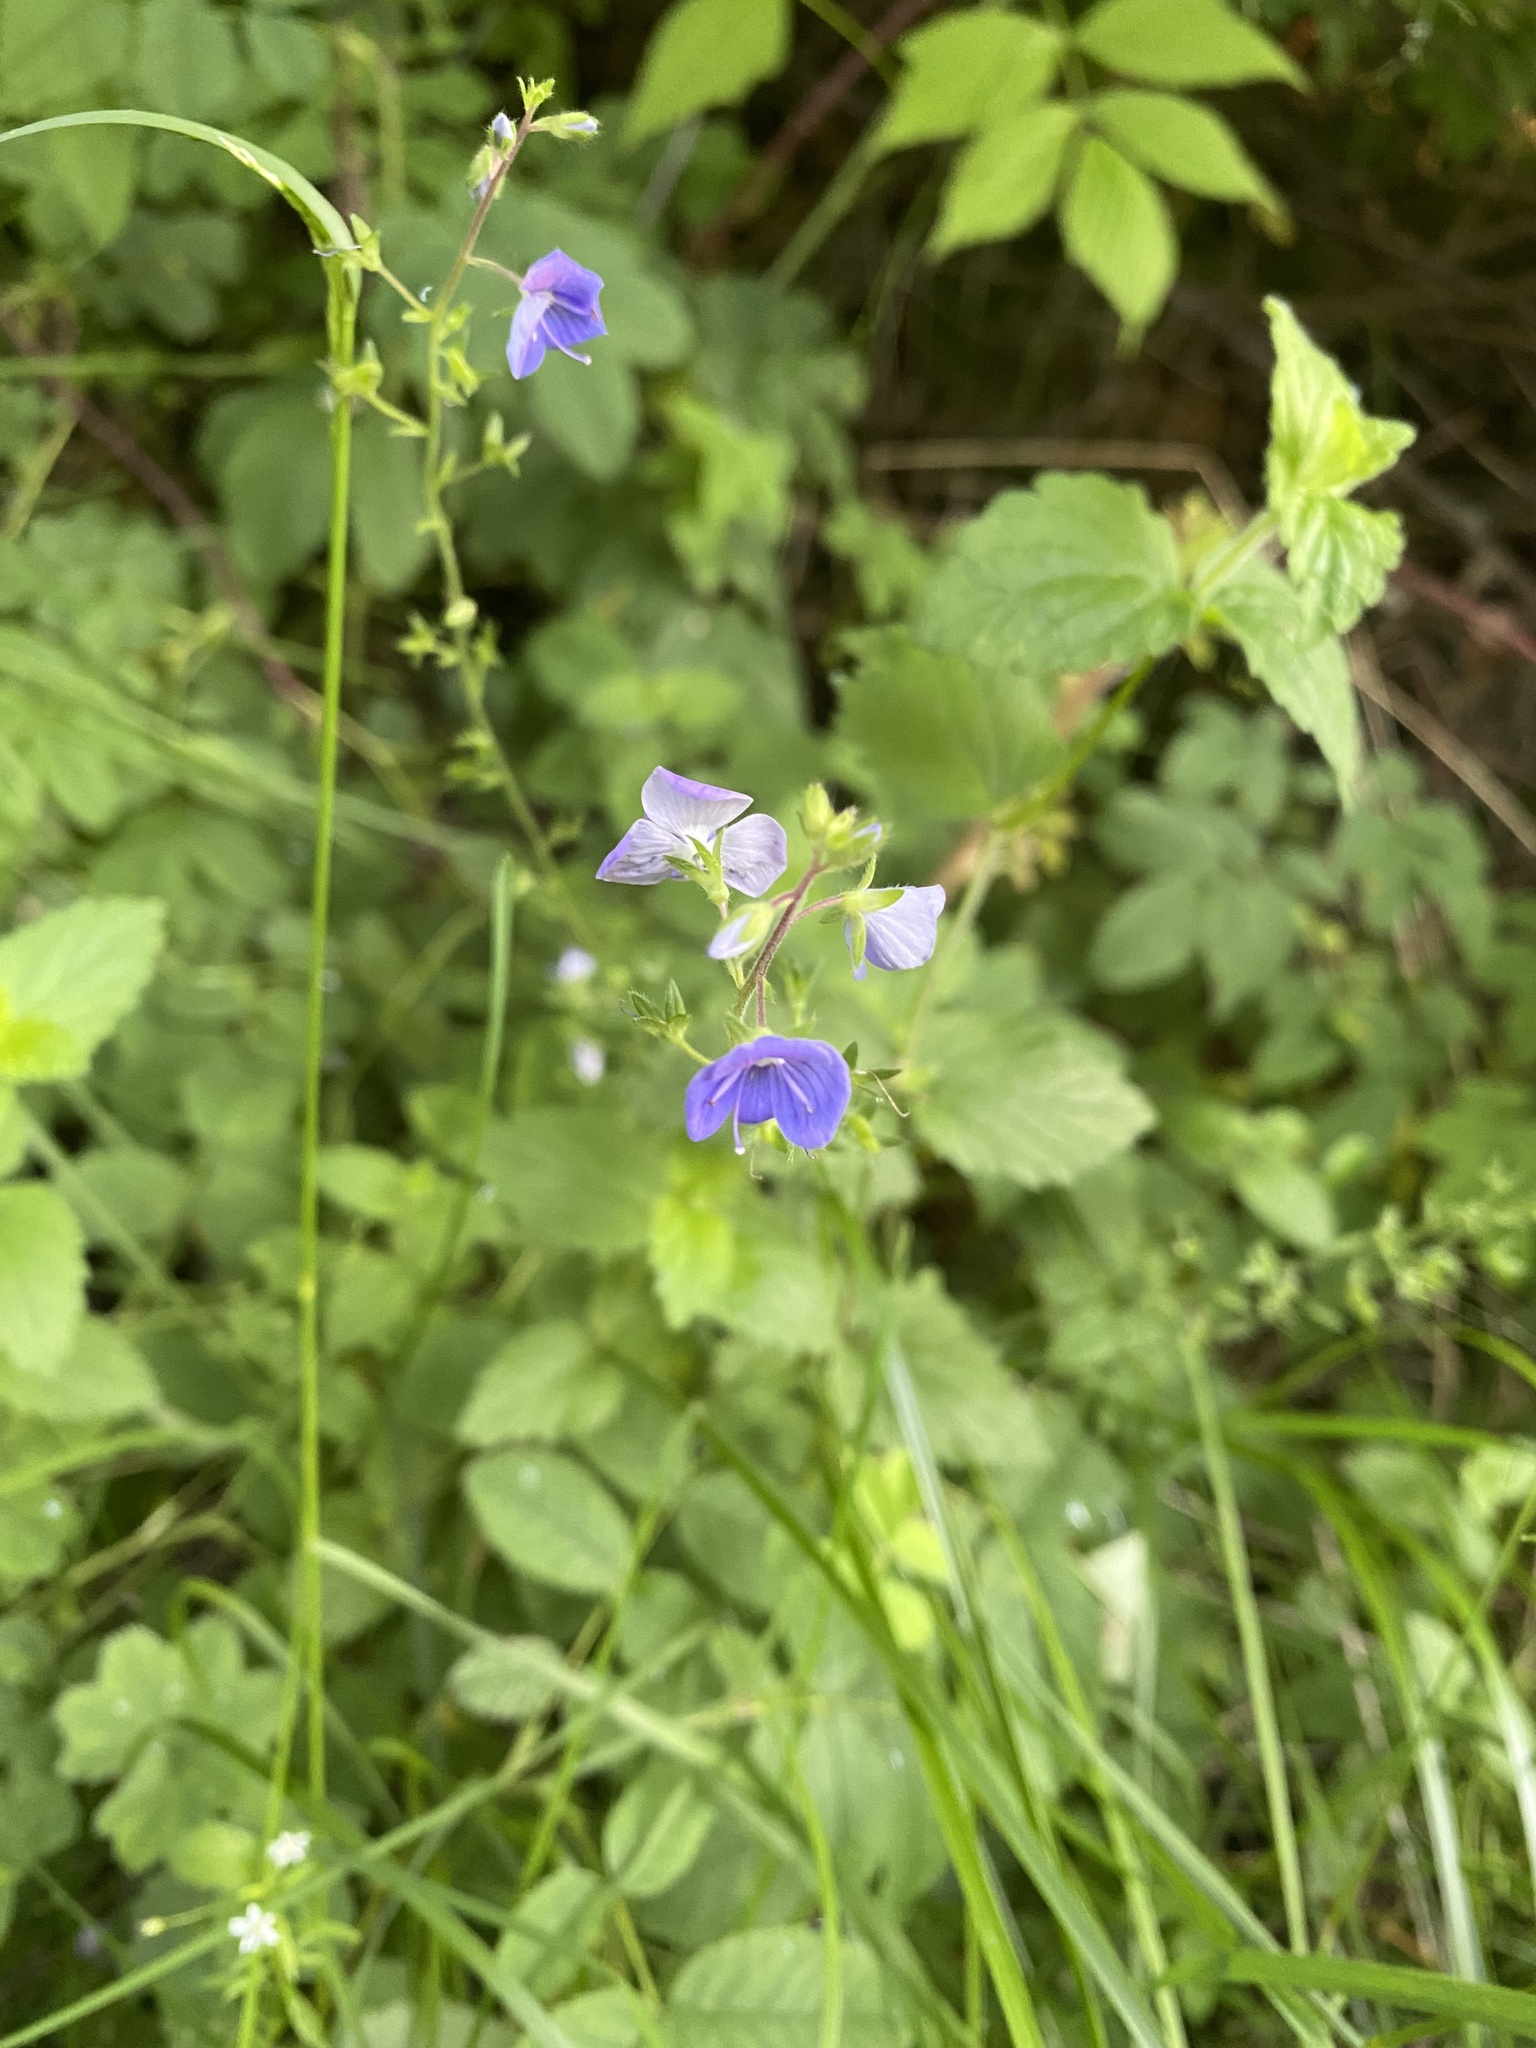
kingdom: Plantae
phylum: Tracheophyta
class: Magnoliopsida
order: Lamiales
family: Plantaginaceae
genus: Veronica
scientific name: Veronica chamaedrys
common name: Germander speedwell
